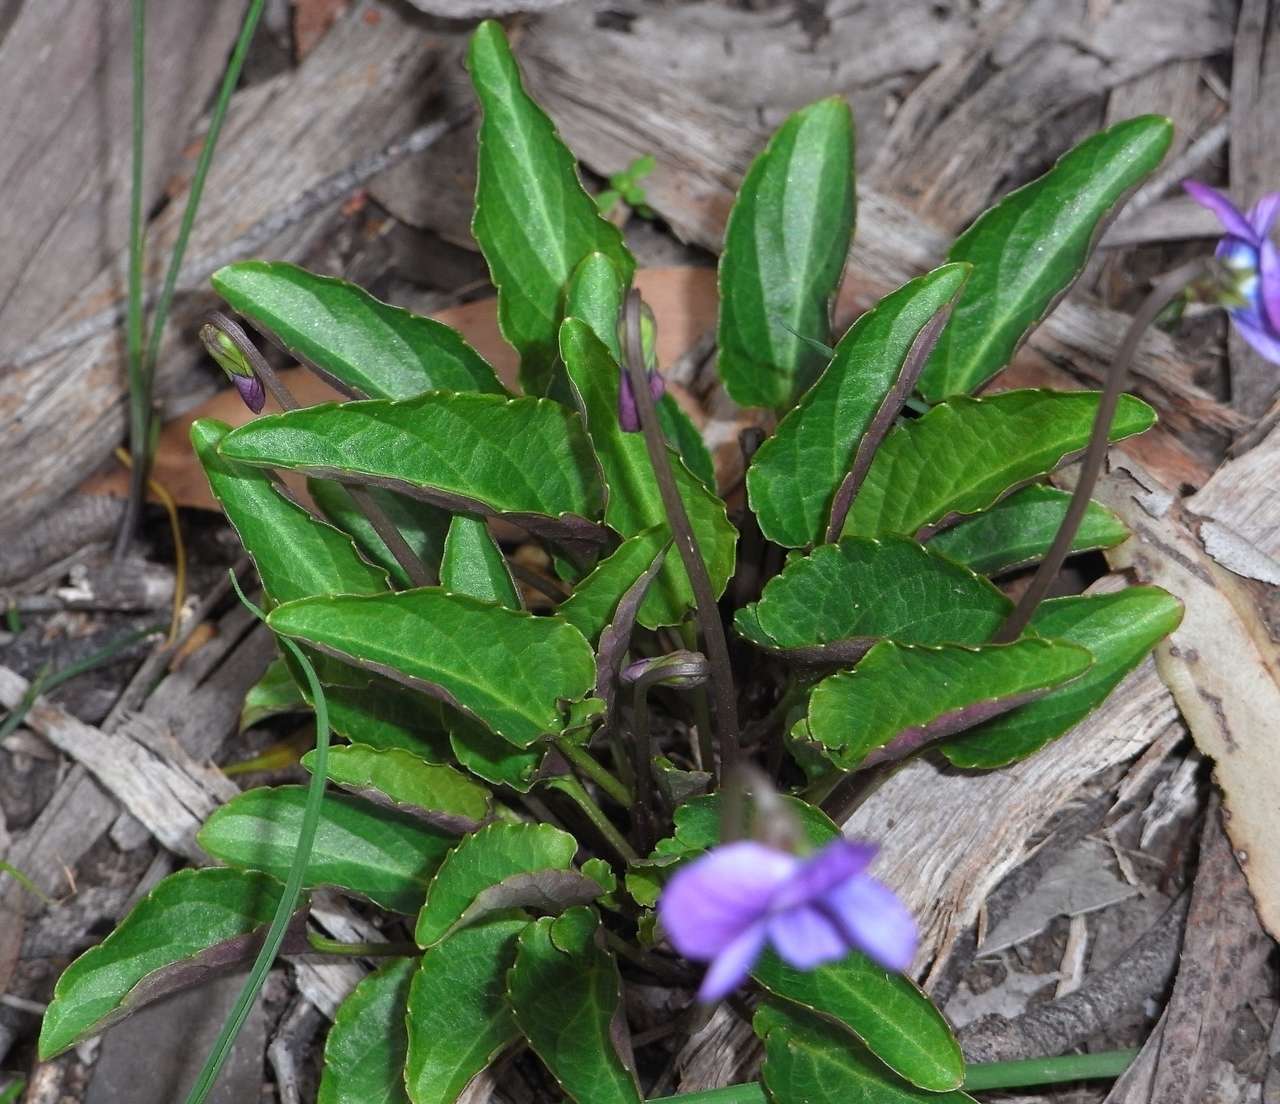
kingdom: Plantae
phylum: Tracheophyta
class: Magnoliopsida
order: Malpighiales
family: Violaceae
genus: Viola
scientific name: Viola betonicifolia
